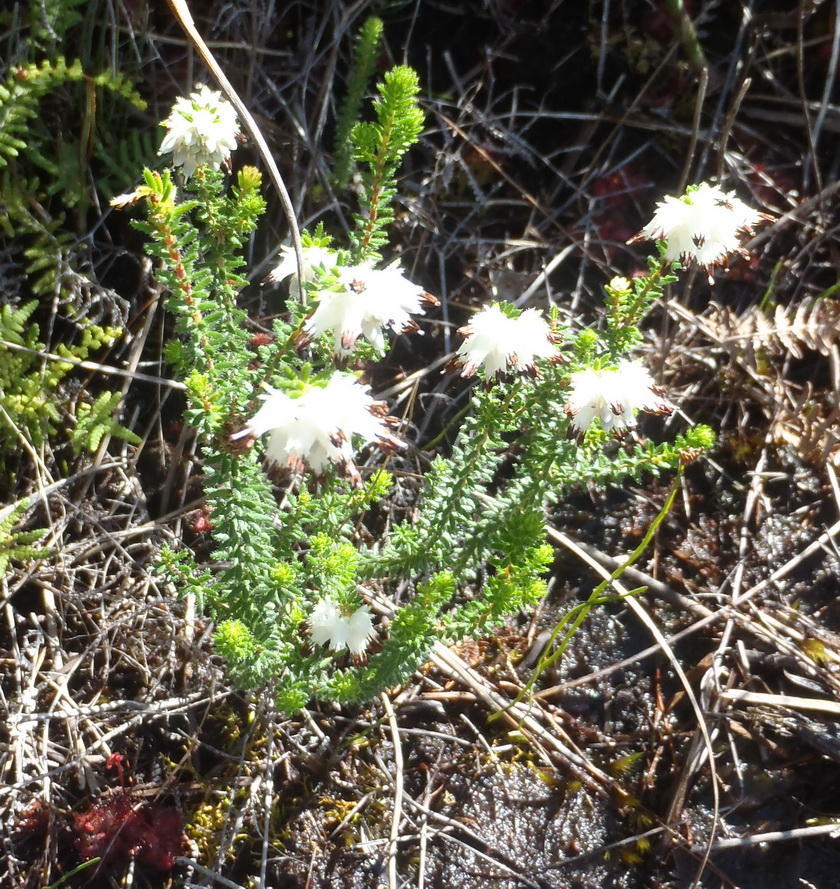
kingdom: Plantae
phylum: Tracheophyta
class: Magnoliopsida
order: Ericales
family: Ericaceae
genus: Erica
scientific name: Erica stylaris
